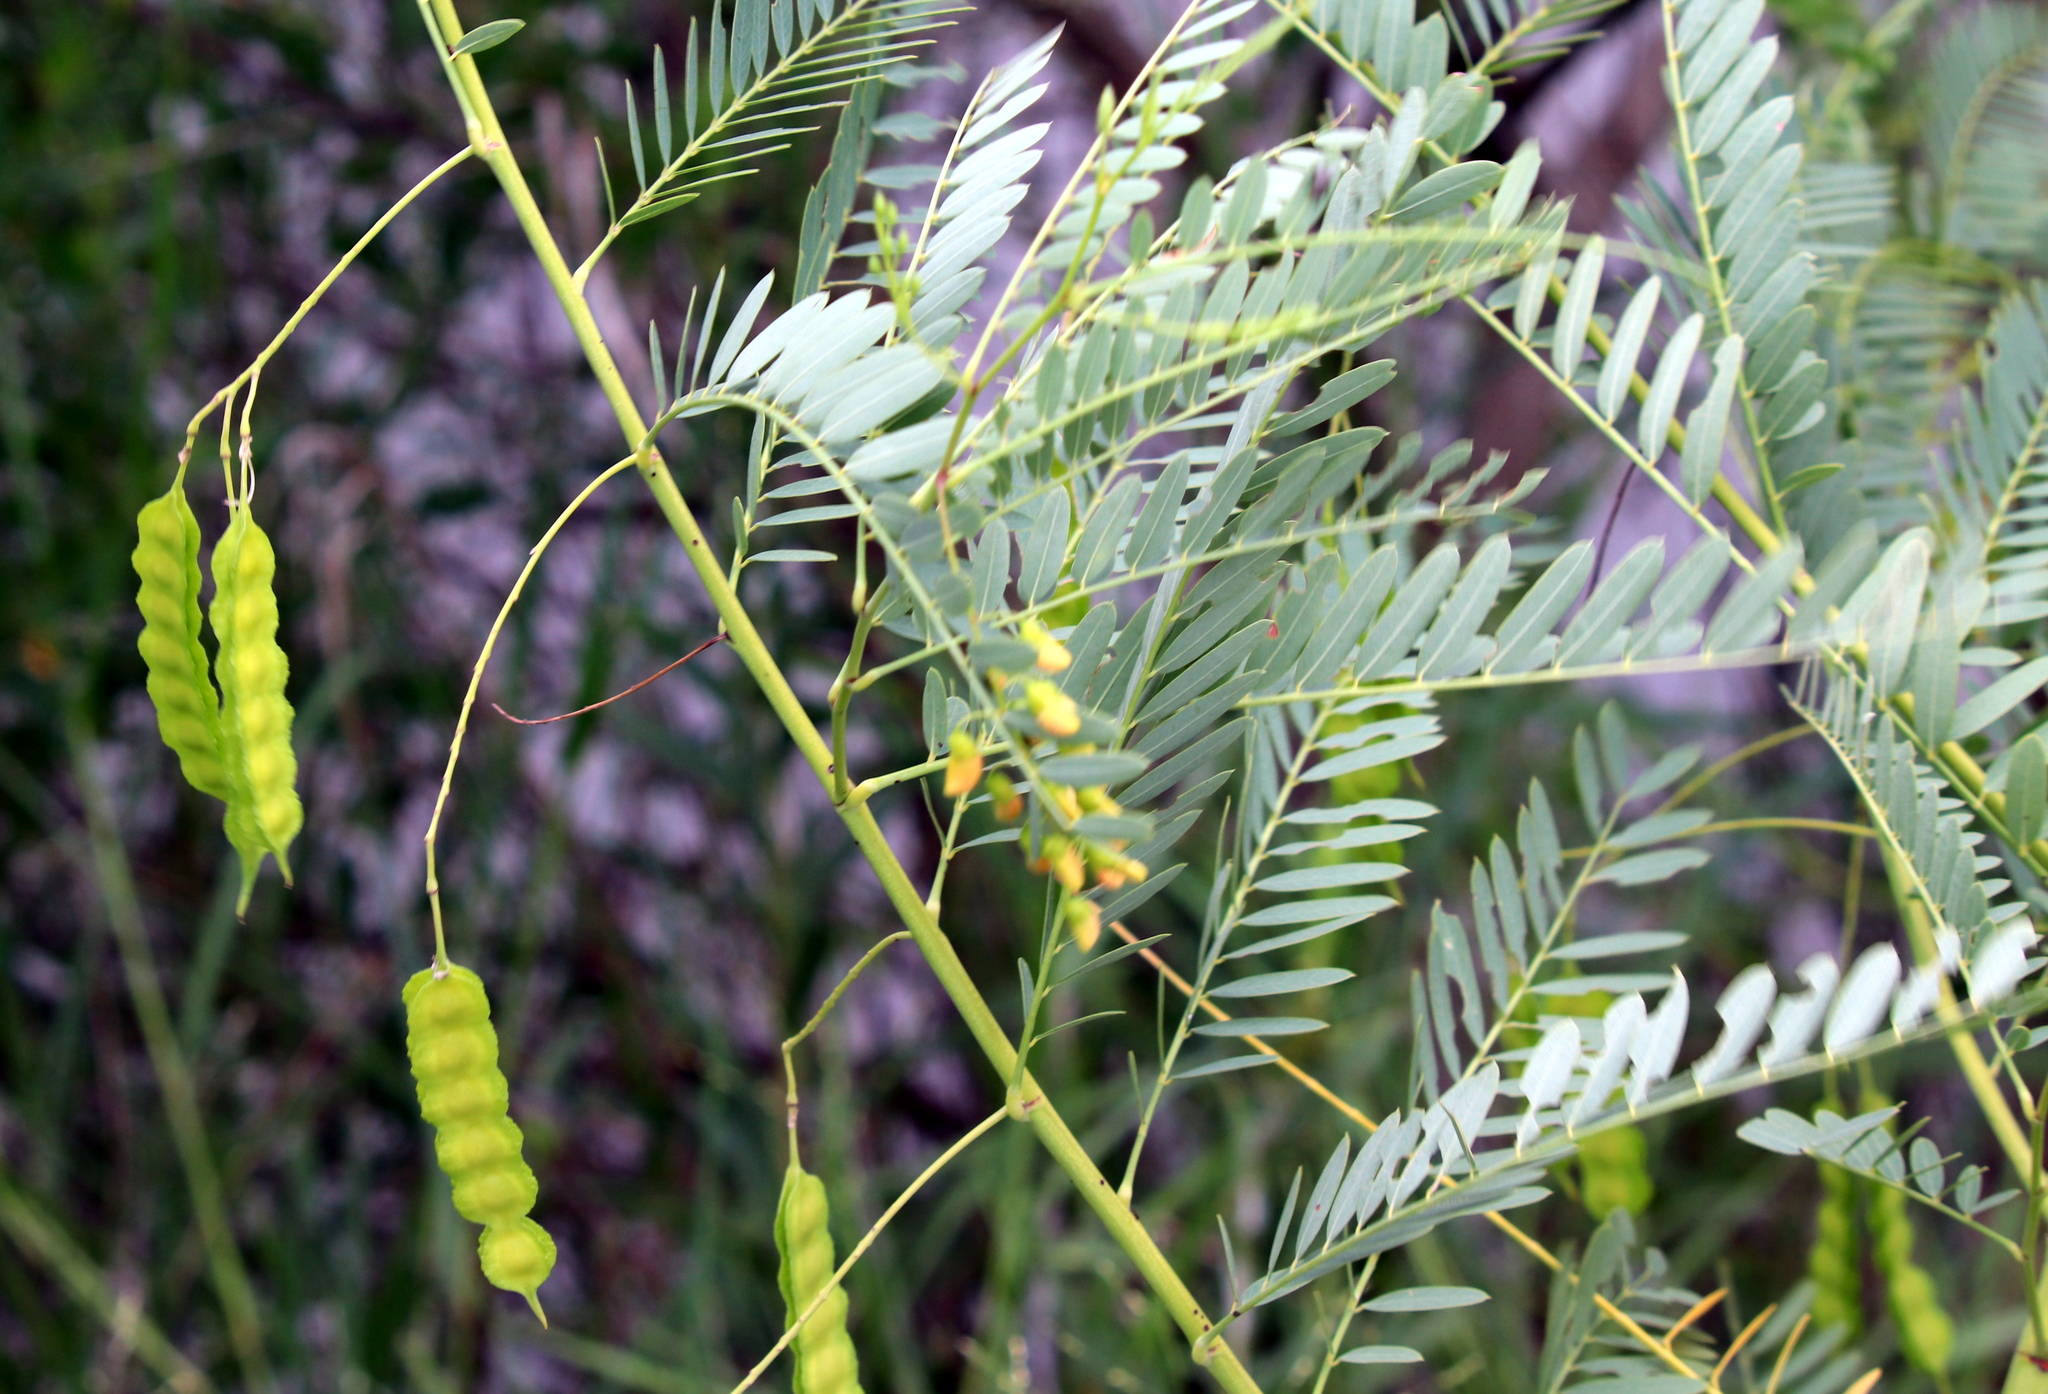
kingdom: Plantae
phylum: Tracheophyta
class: Magnoliopsida
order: Fabales
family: Fabaceae
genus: Sesbania
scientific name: Sesbania drummondii
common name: Poison-bean
